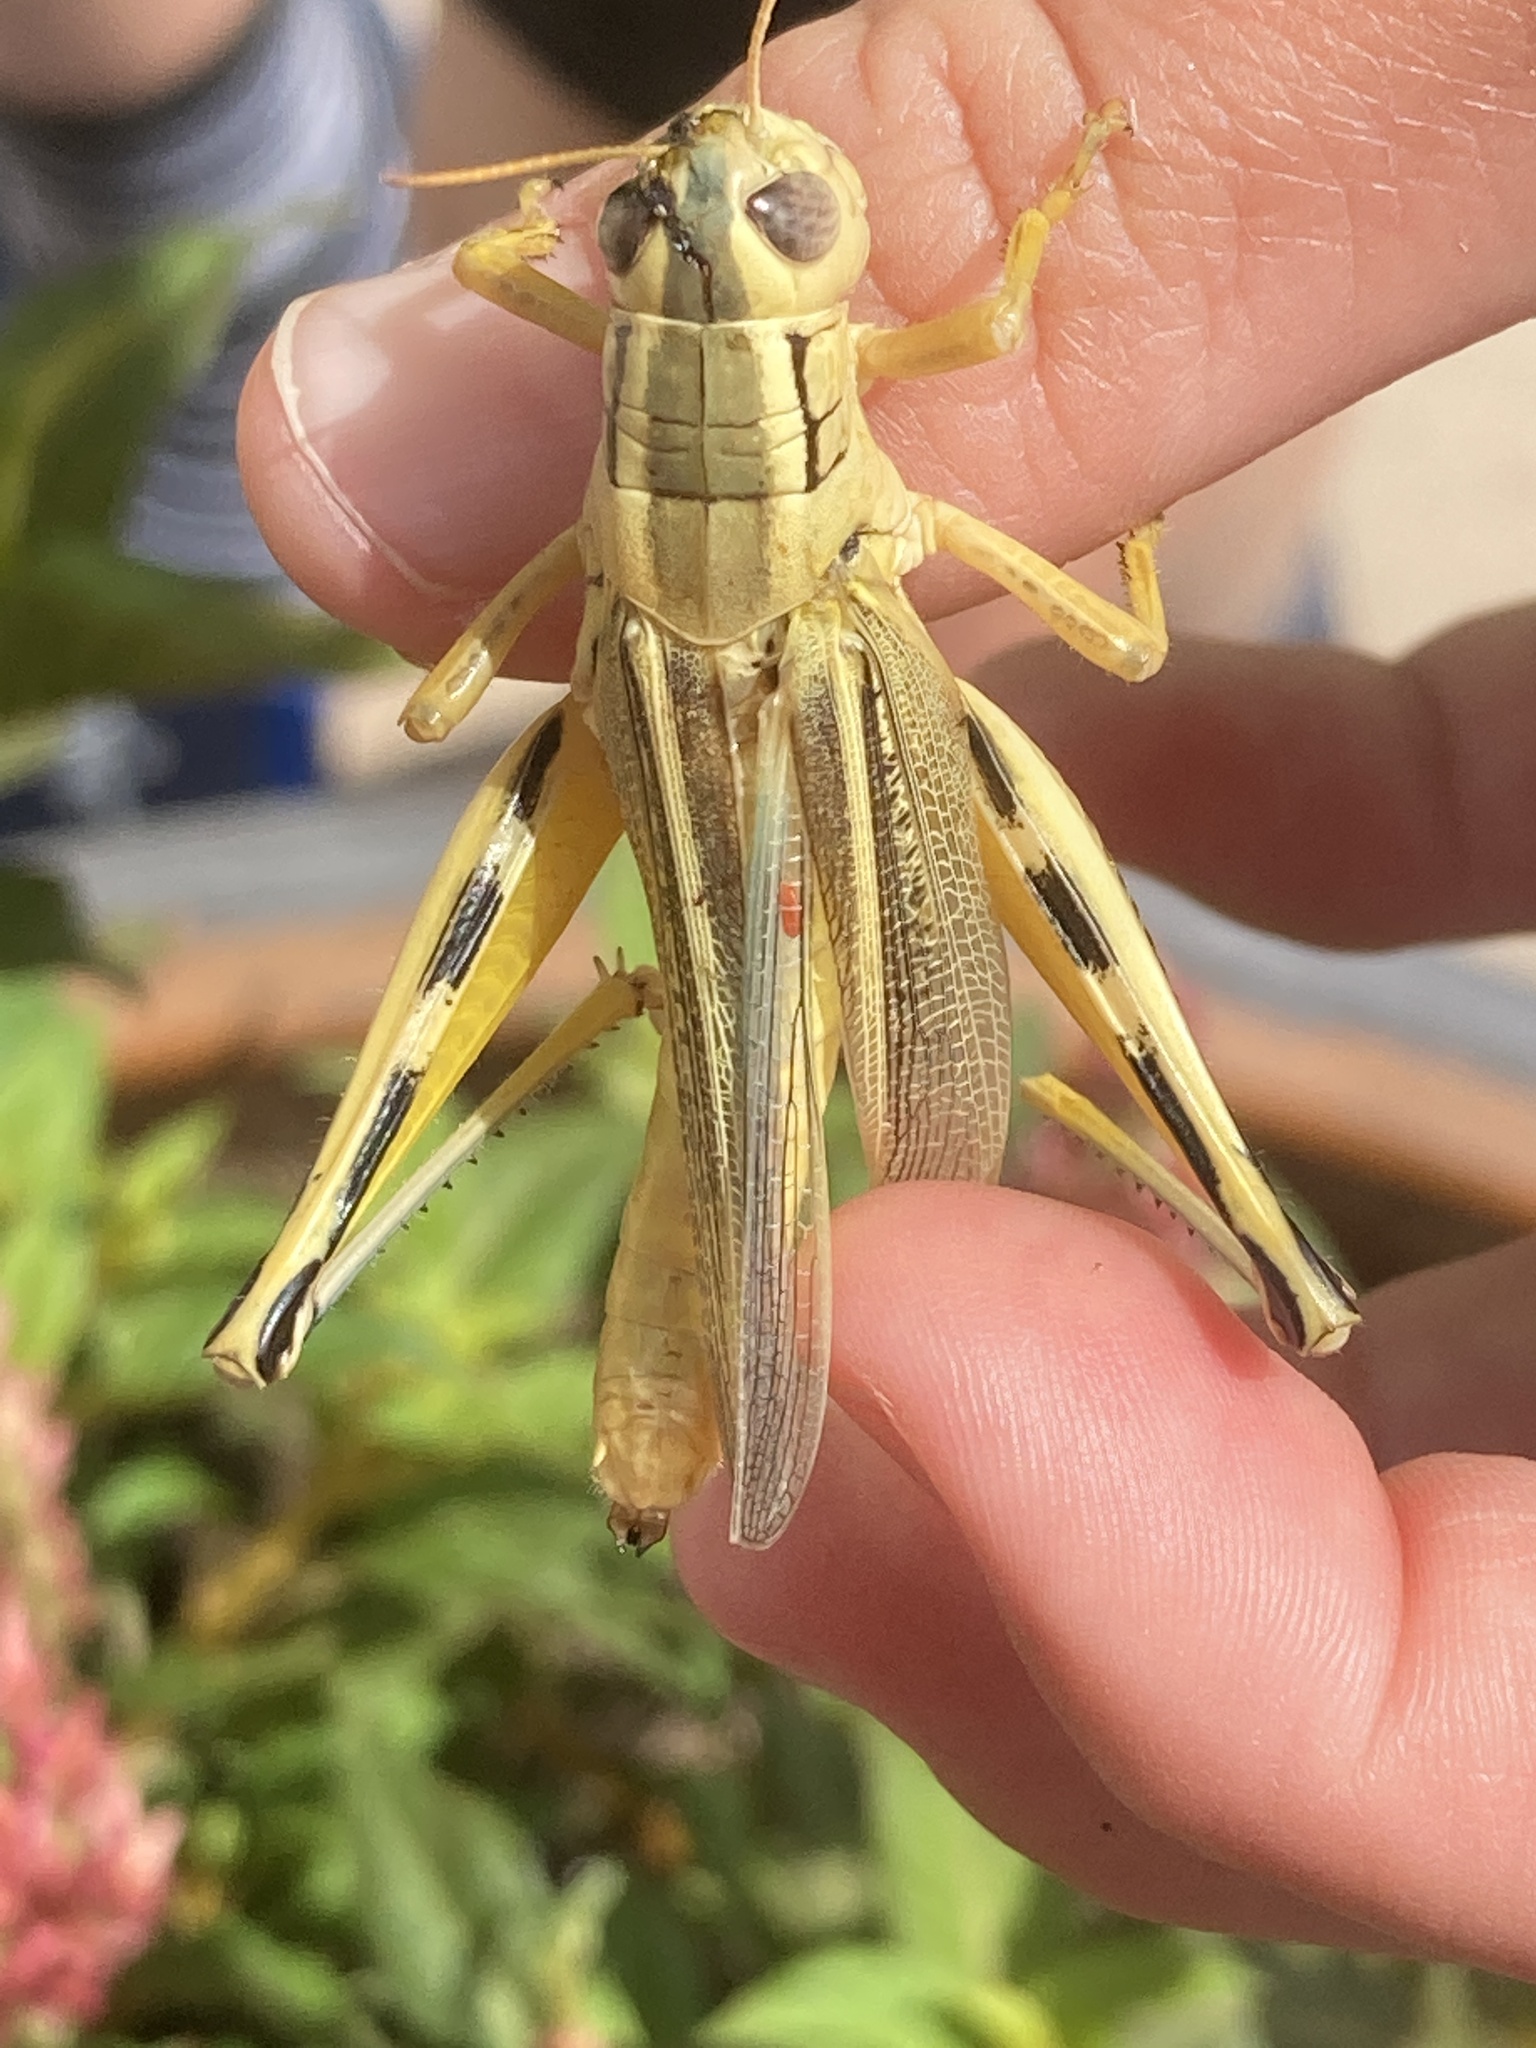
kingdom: Animalia
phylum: Arthropoda
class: Insecta
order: Orthoptera
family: Acrididae
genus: Melanoplus
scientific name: Melanoplus bivittatus
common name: Two-striped grasshopper
